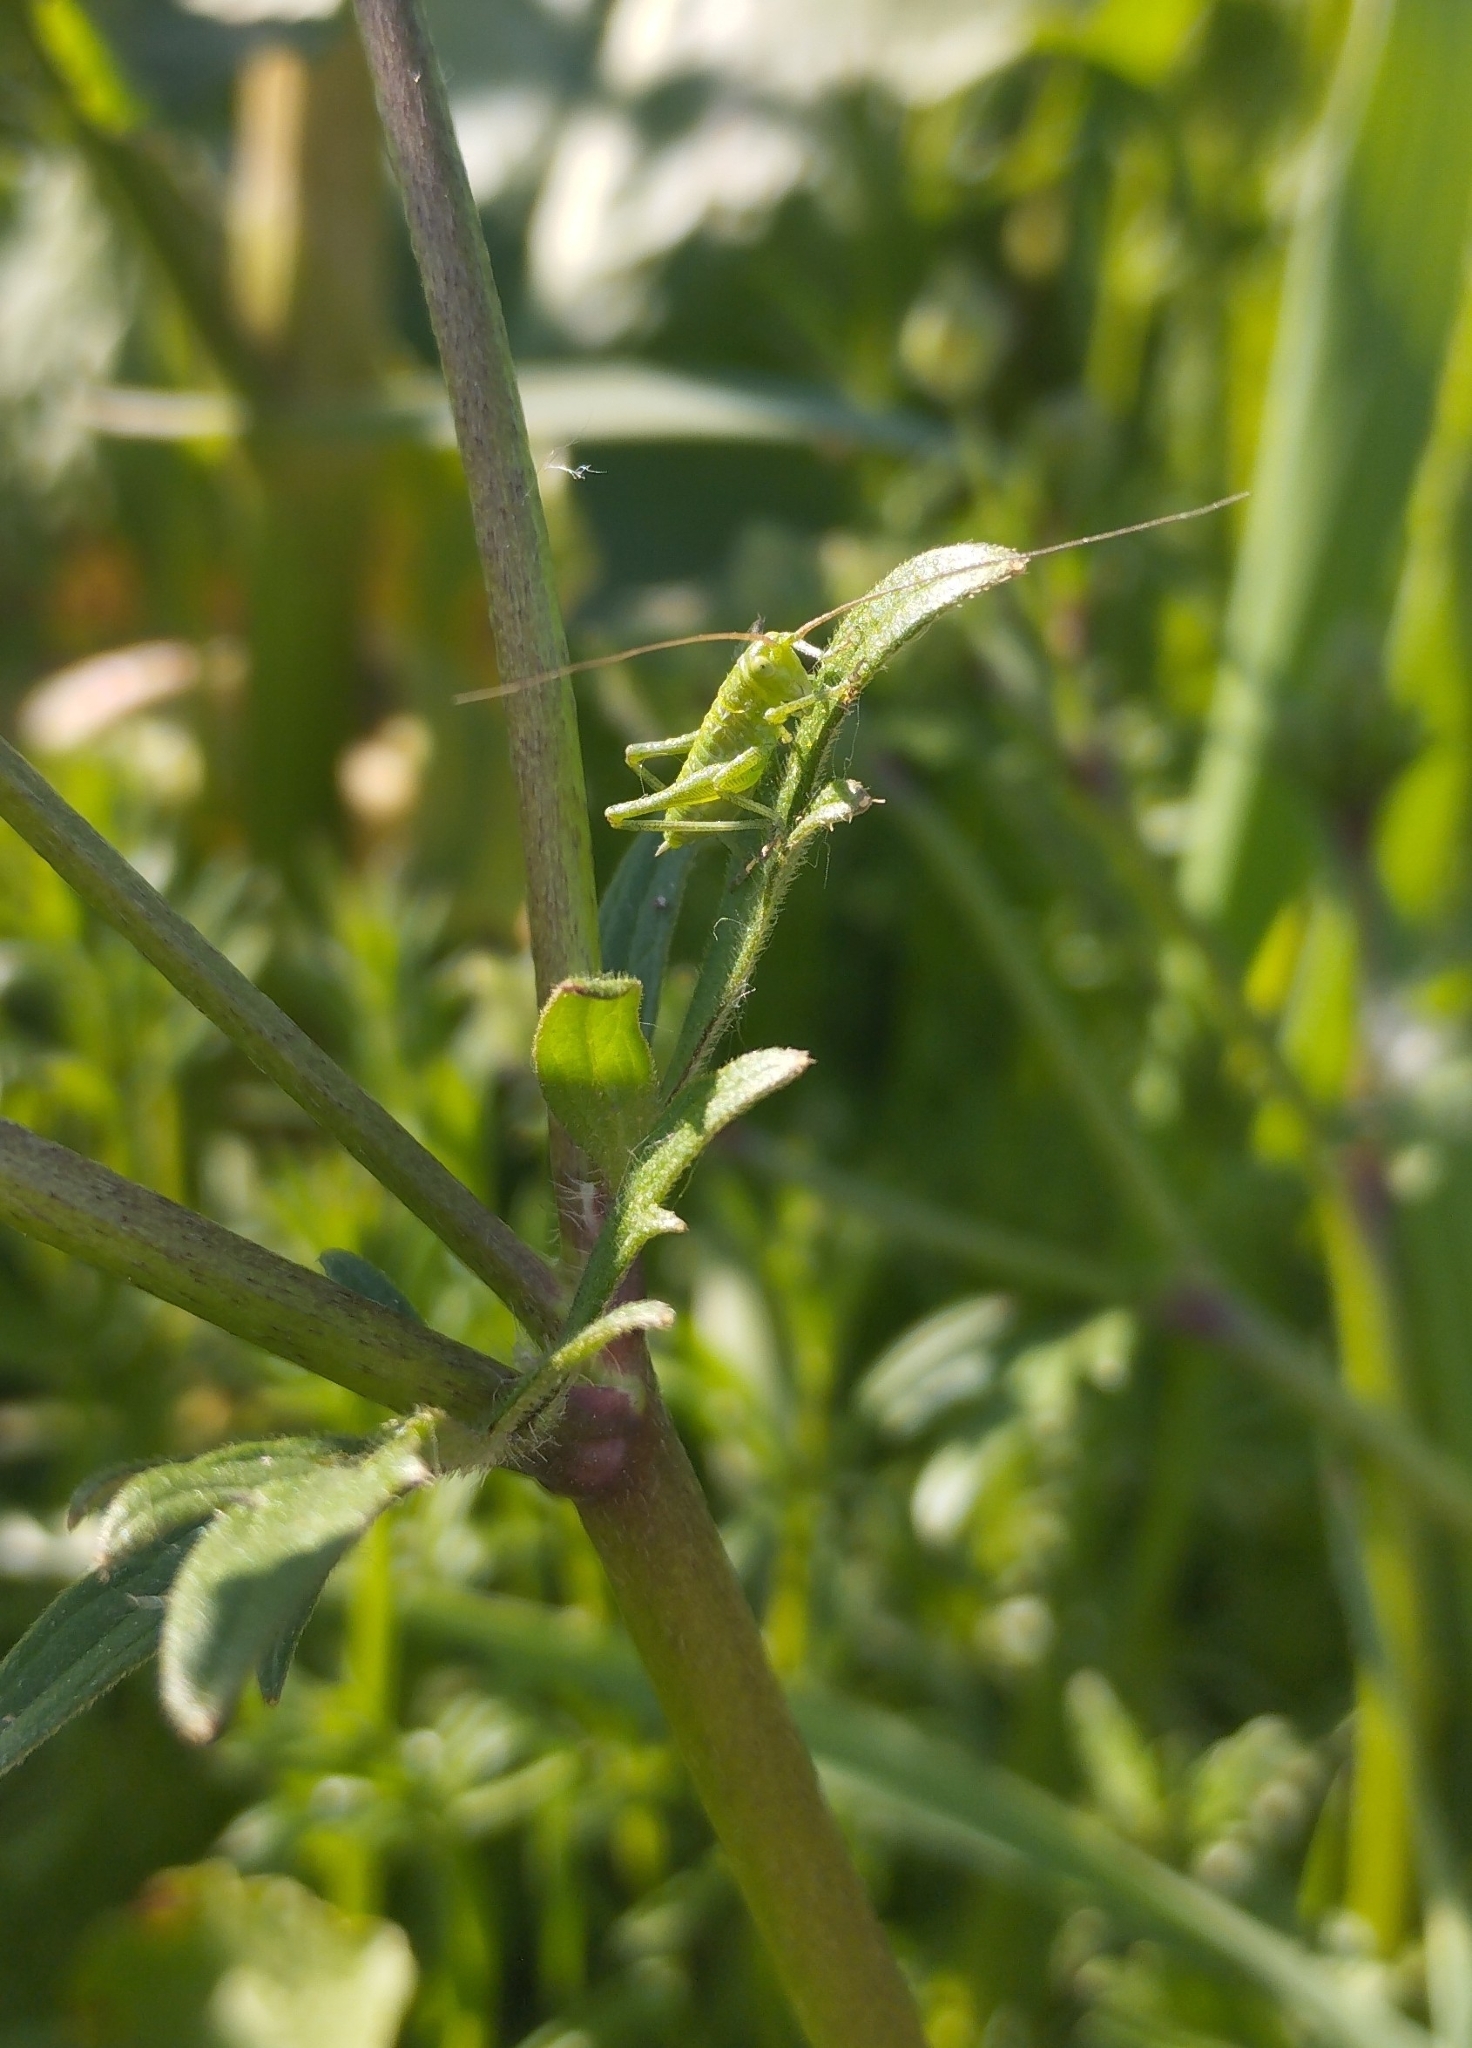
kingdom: Animalia
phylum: Arthropoda
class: Insecta
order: Orthoptera
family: Tettigoniidae
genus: Tettigonia
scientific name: Tettigonia viridissima
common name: Great green bush-cricket
